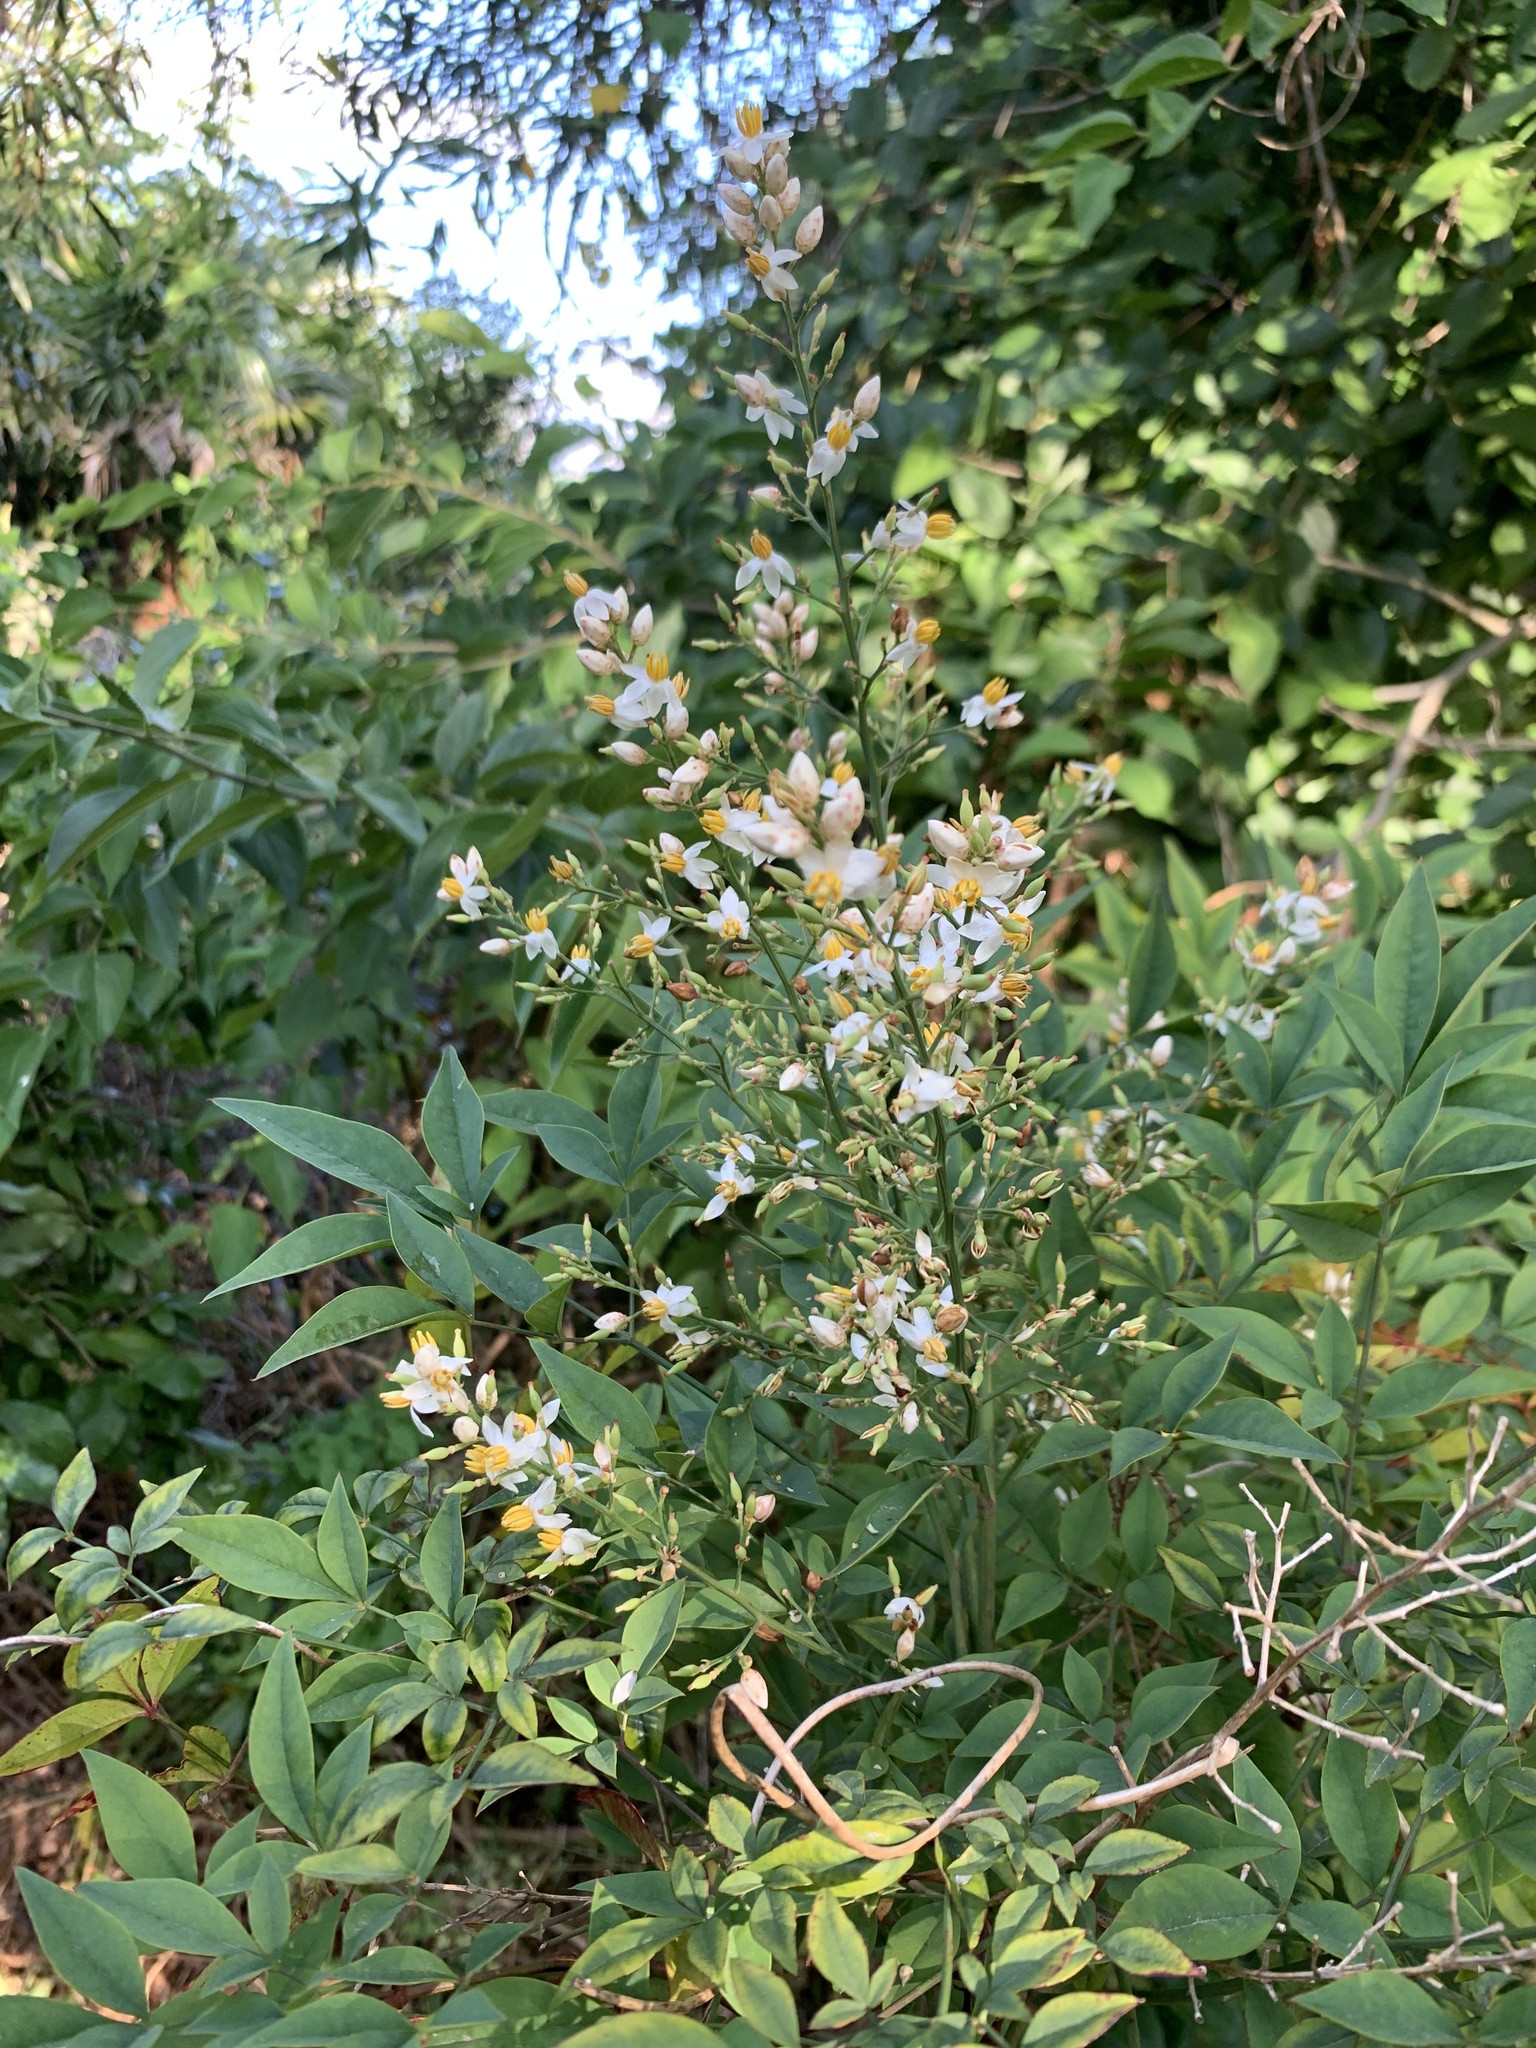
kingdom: Plantae
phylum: Tracheophyta
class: Magnoliopsida
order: Ranunculales
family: Berberidaceae
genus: Nandina
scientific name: Nandina domestica
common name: Sacred bamboo
